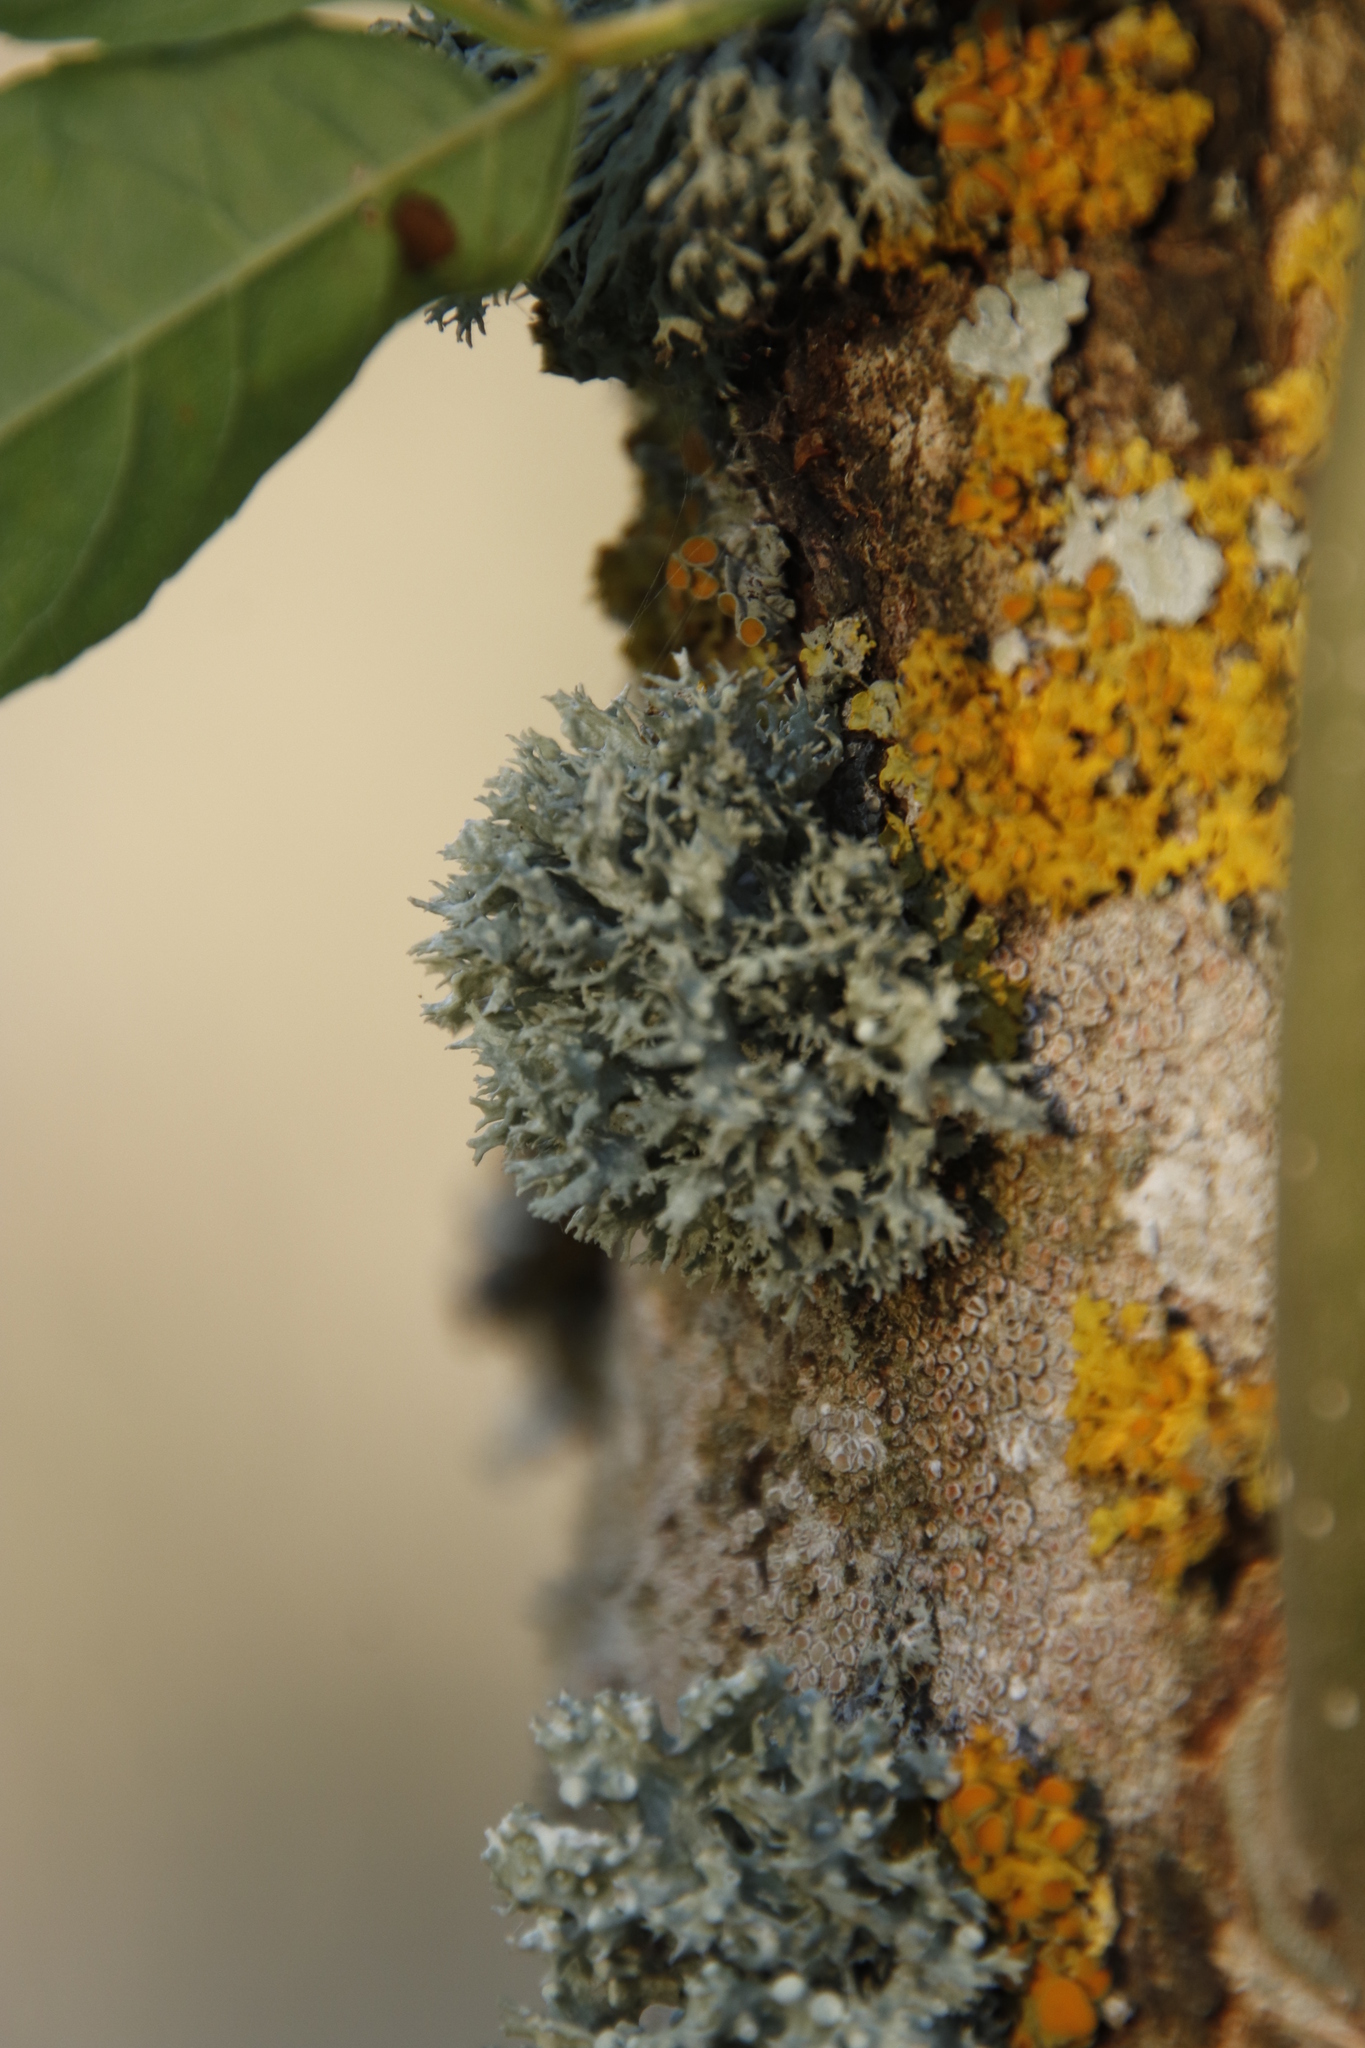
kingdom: Fungi
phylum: Ascomycota
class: Lecanoromycetes
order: Lecanorales
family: Ramalinaceae
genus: Ramalina
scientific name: Ramalina fastigiata
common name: Dotted ribbon lichen
